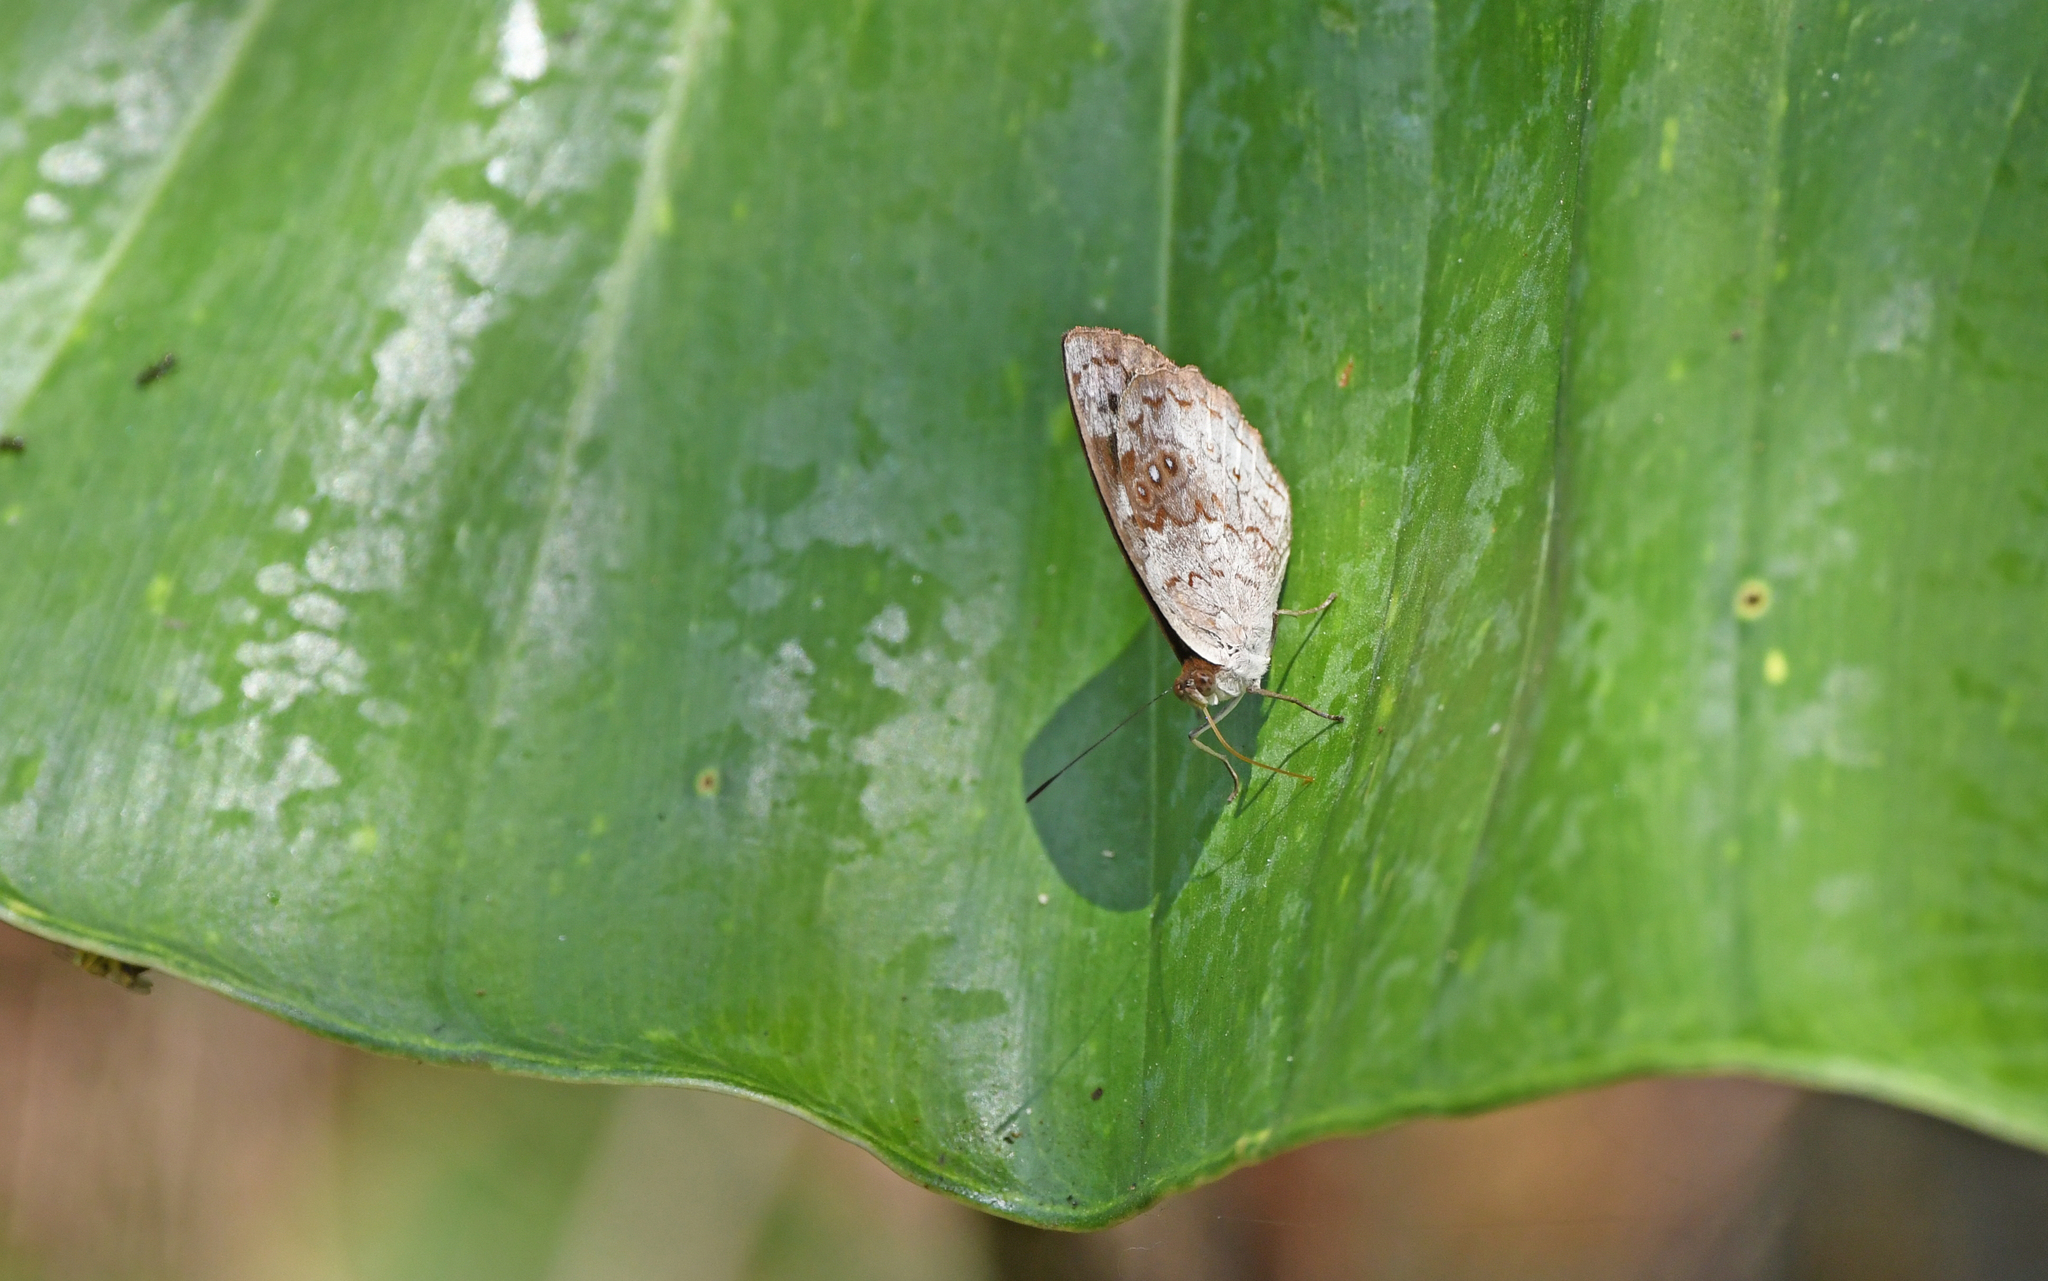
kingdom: Animalia
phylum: Arthropoda
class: Insecta
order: Lepidoptera
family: Nymphalidae
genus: Eunica
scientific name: Eunica marsolia
